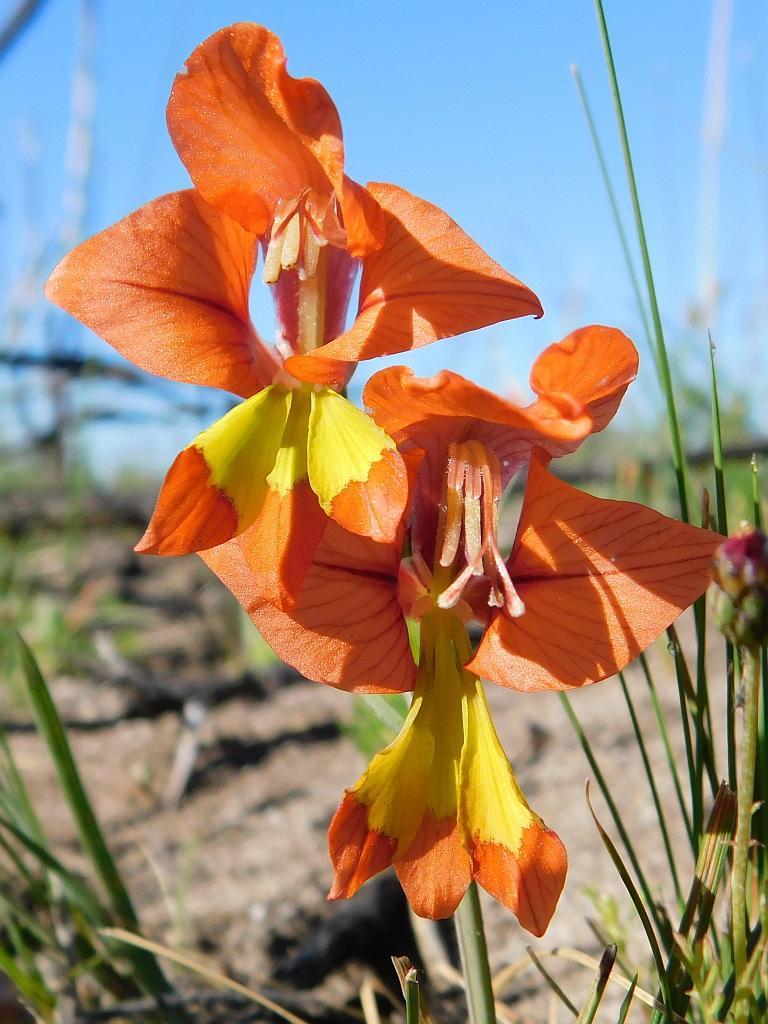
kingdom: Plantae
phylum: Tracheophyta
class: Liliopsida
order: Asparagales
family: Iridaceae
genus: Gladiolus
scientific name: Gladiolus alatus
